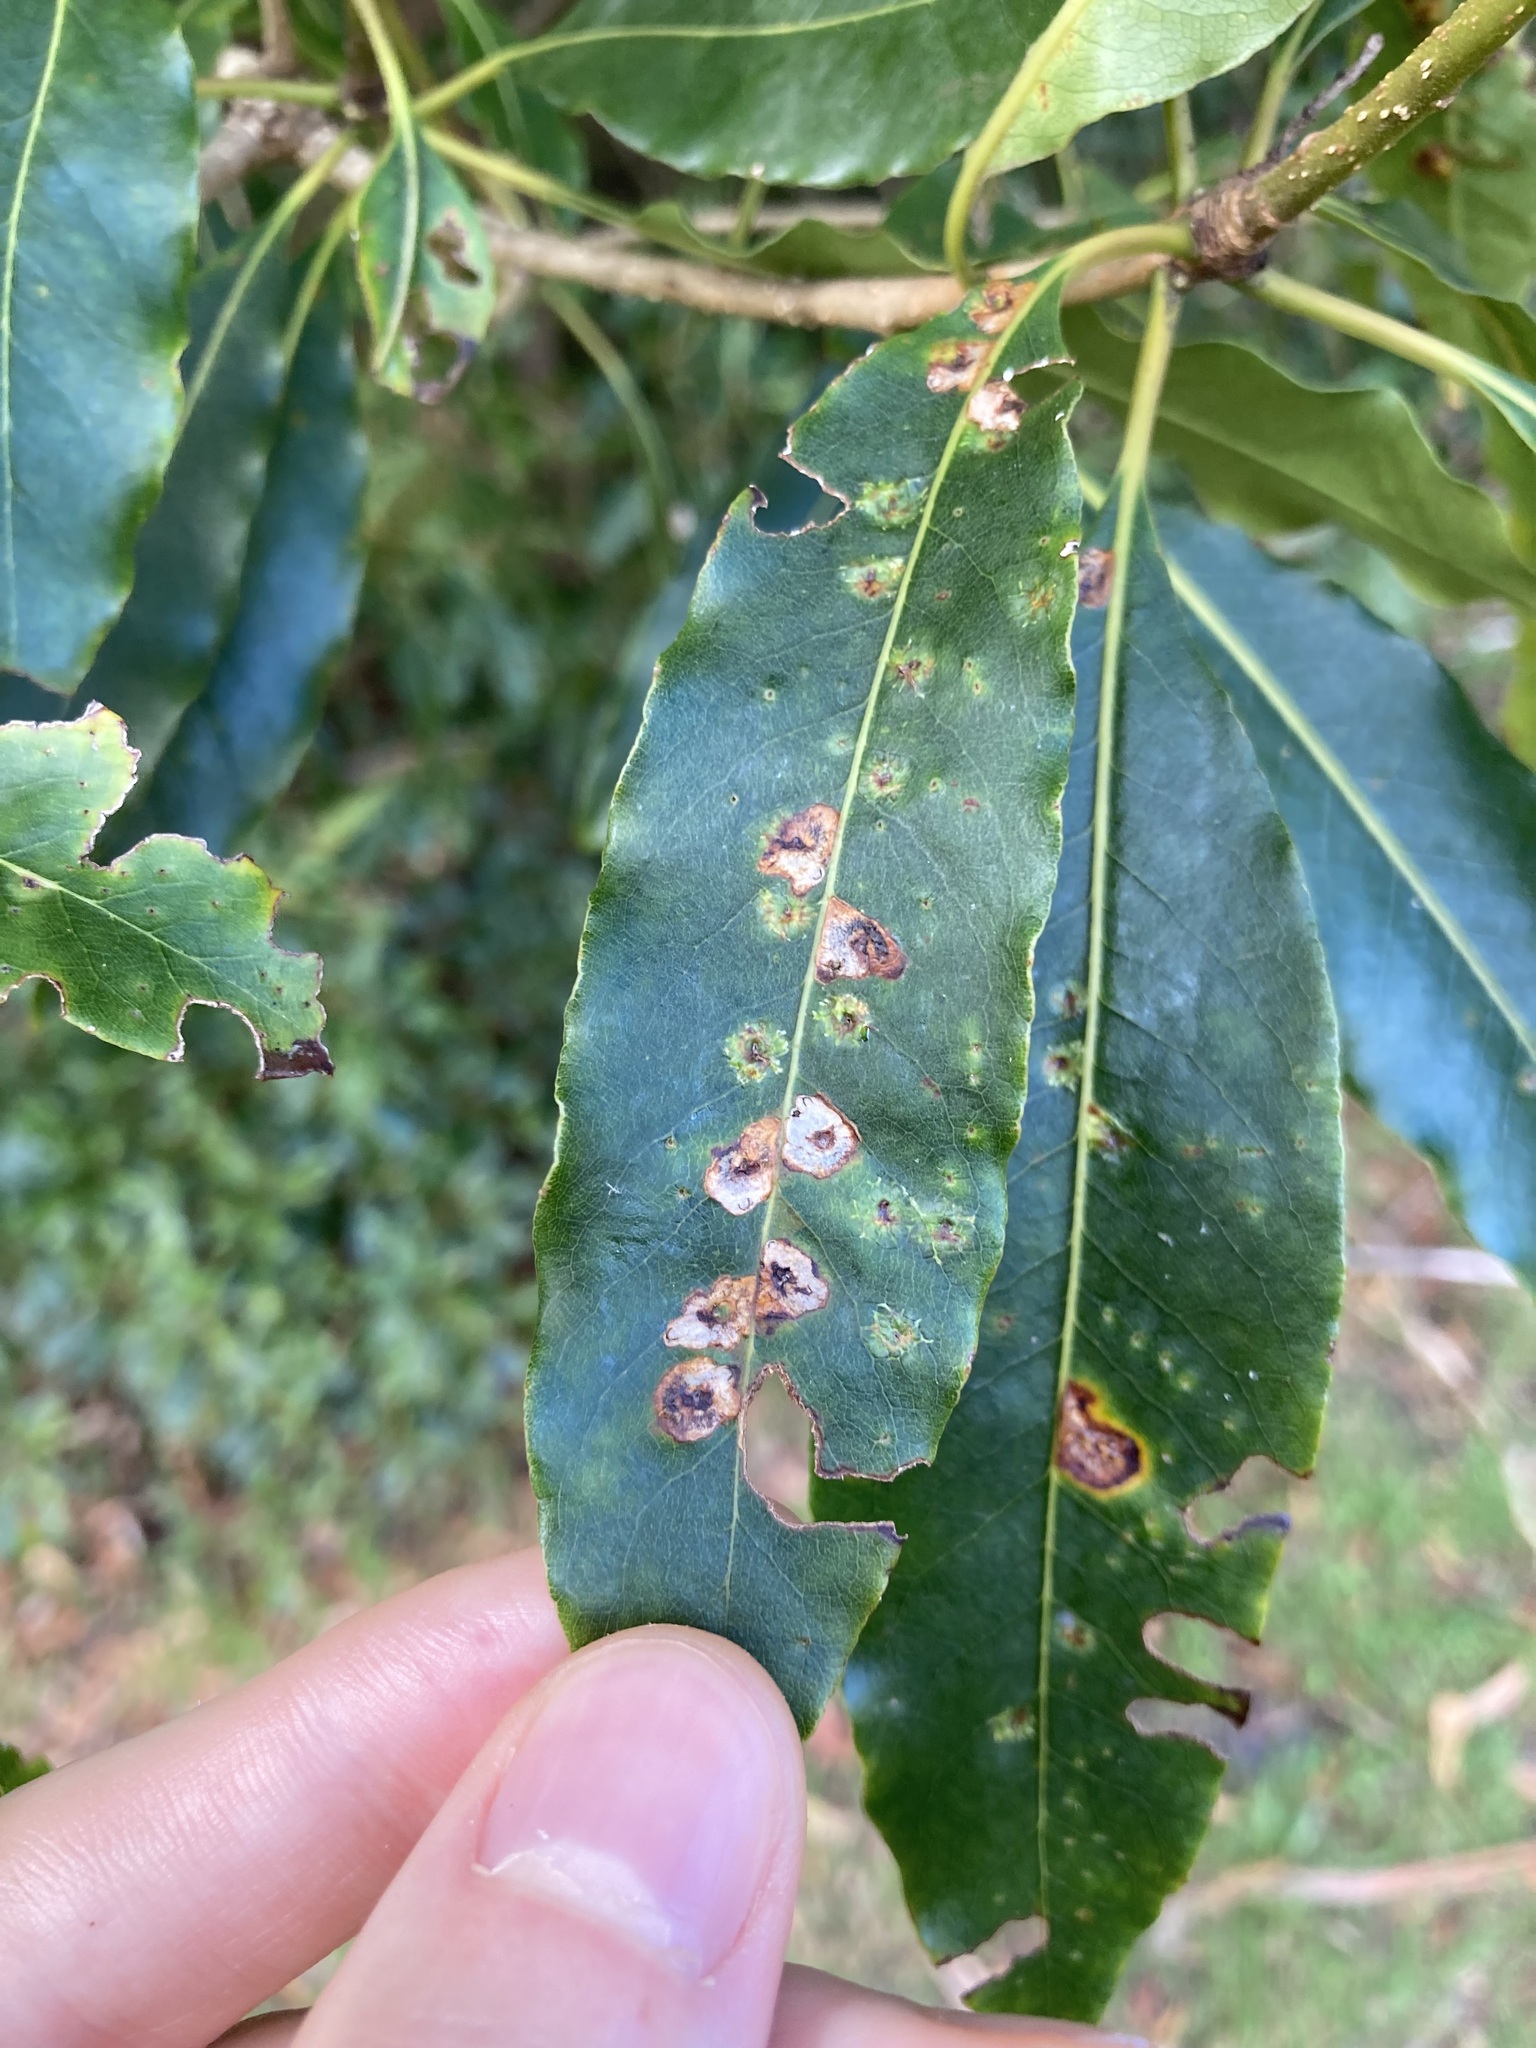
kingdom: Animalia
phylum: Arthropoda
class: Insecta
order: Diptera
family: Agromyzidae
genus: Phytoliriomyza
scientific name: Phytoliriomyza pittosporophylli
